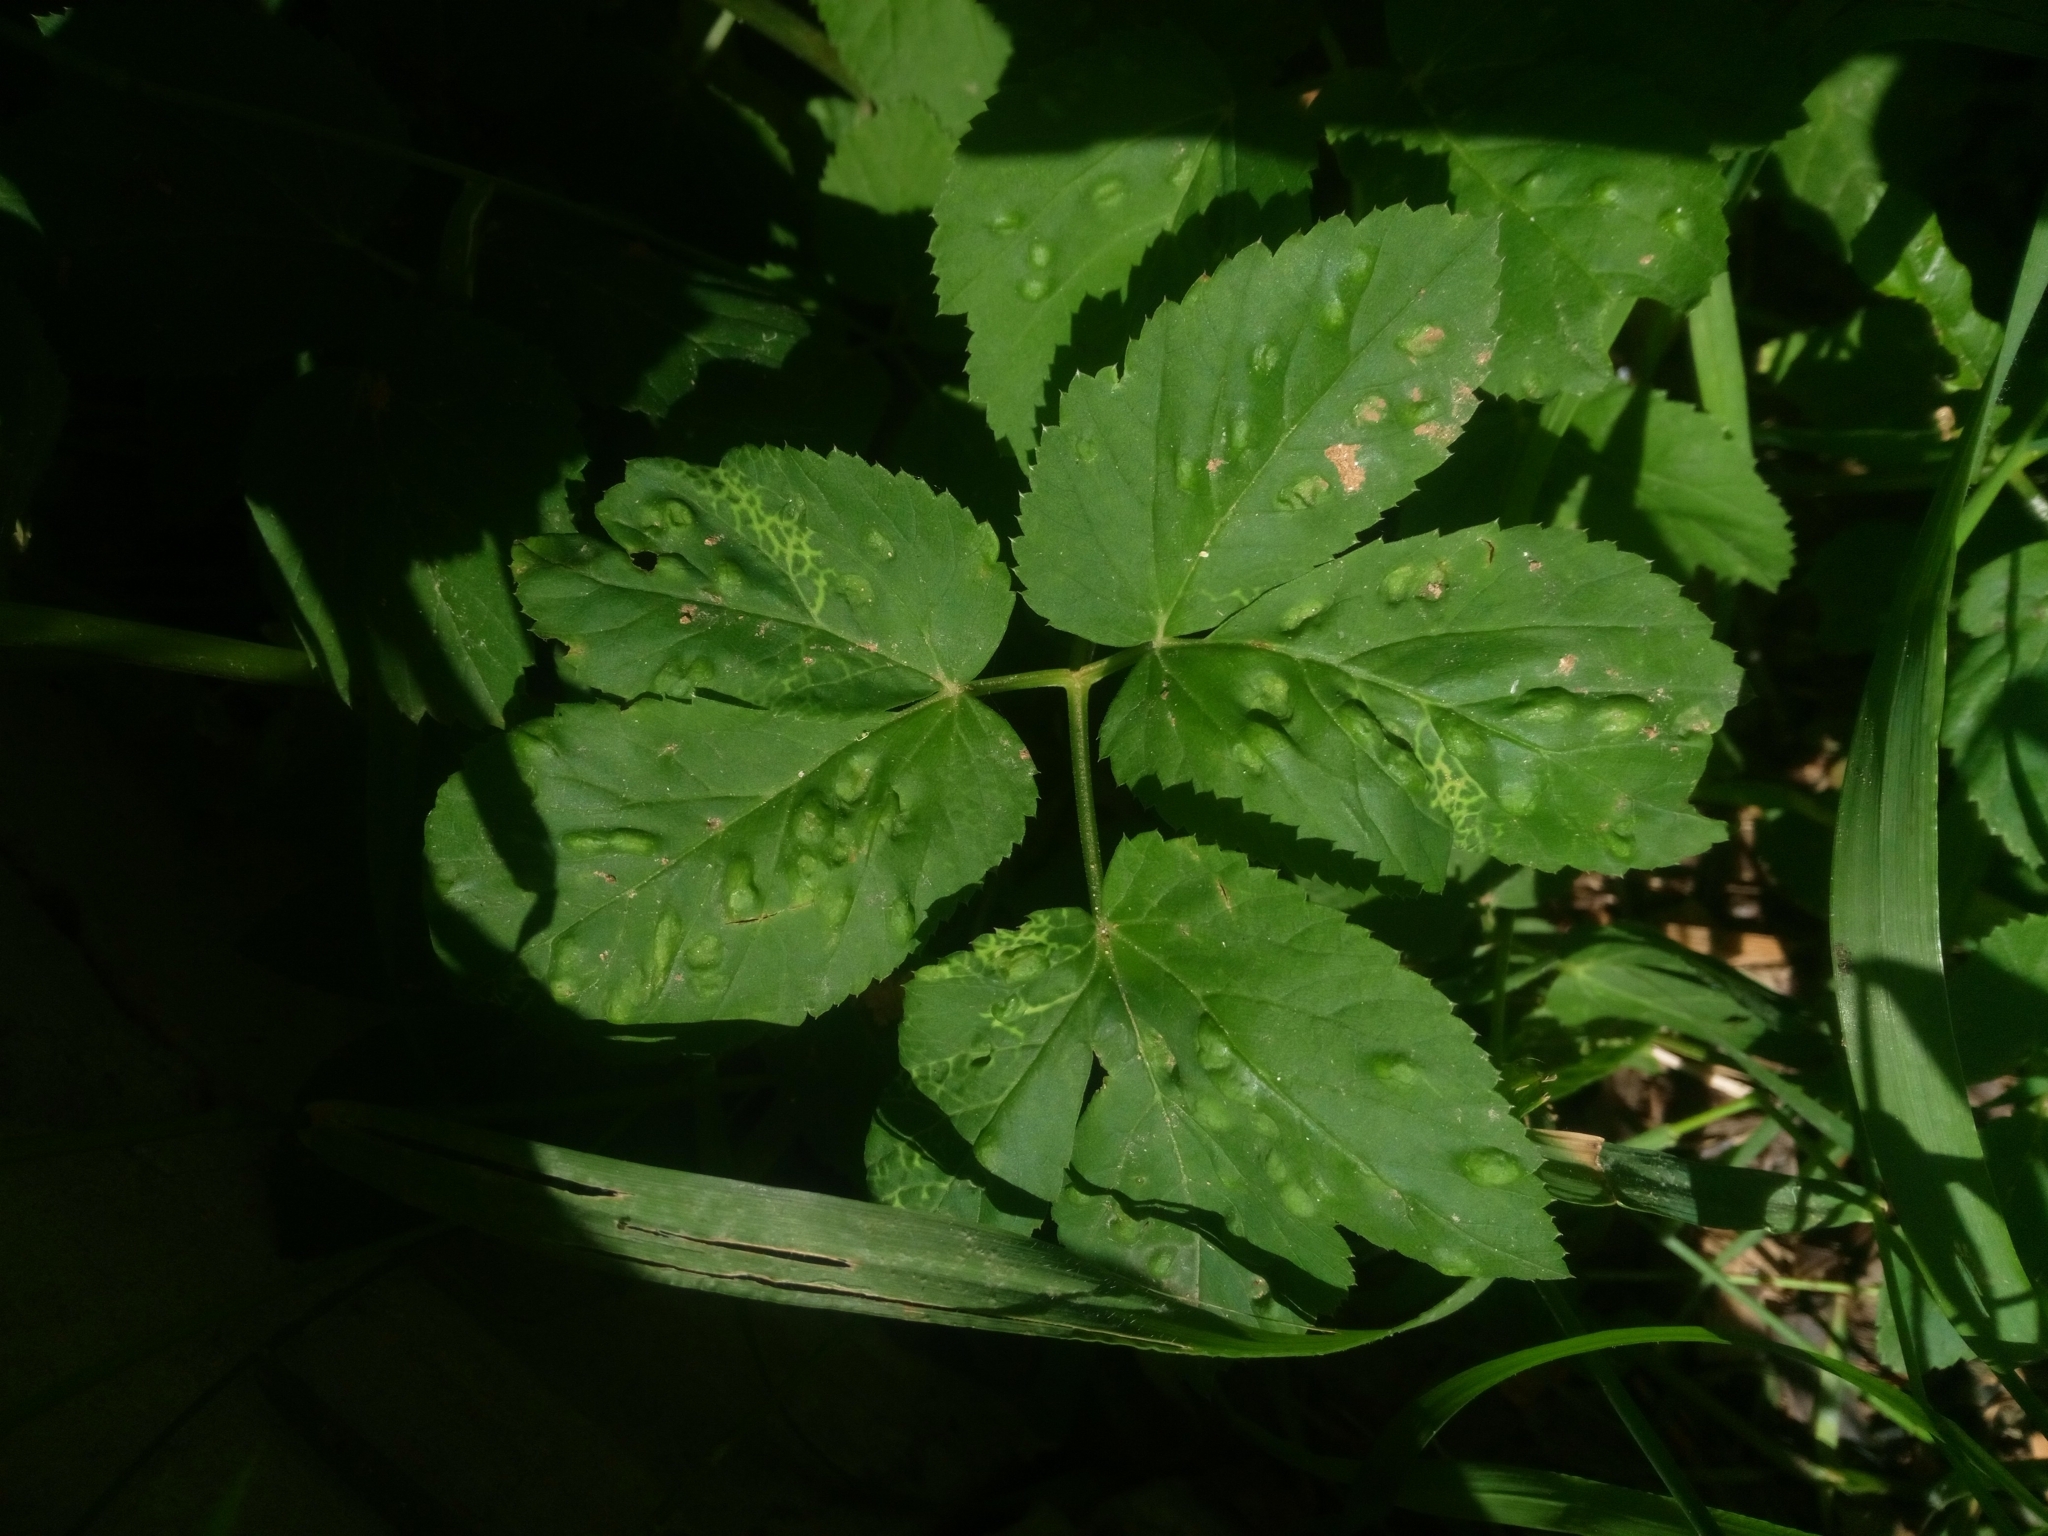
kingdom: Plantae
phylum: Tracheophyta
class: Magnoliopsida
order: Apiales
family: Apiaceae
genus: Aegopodium
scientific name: Aegopodium podagraria
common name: Ground-elder
